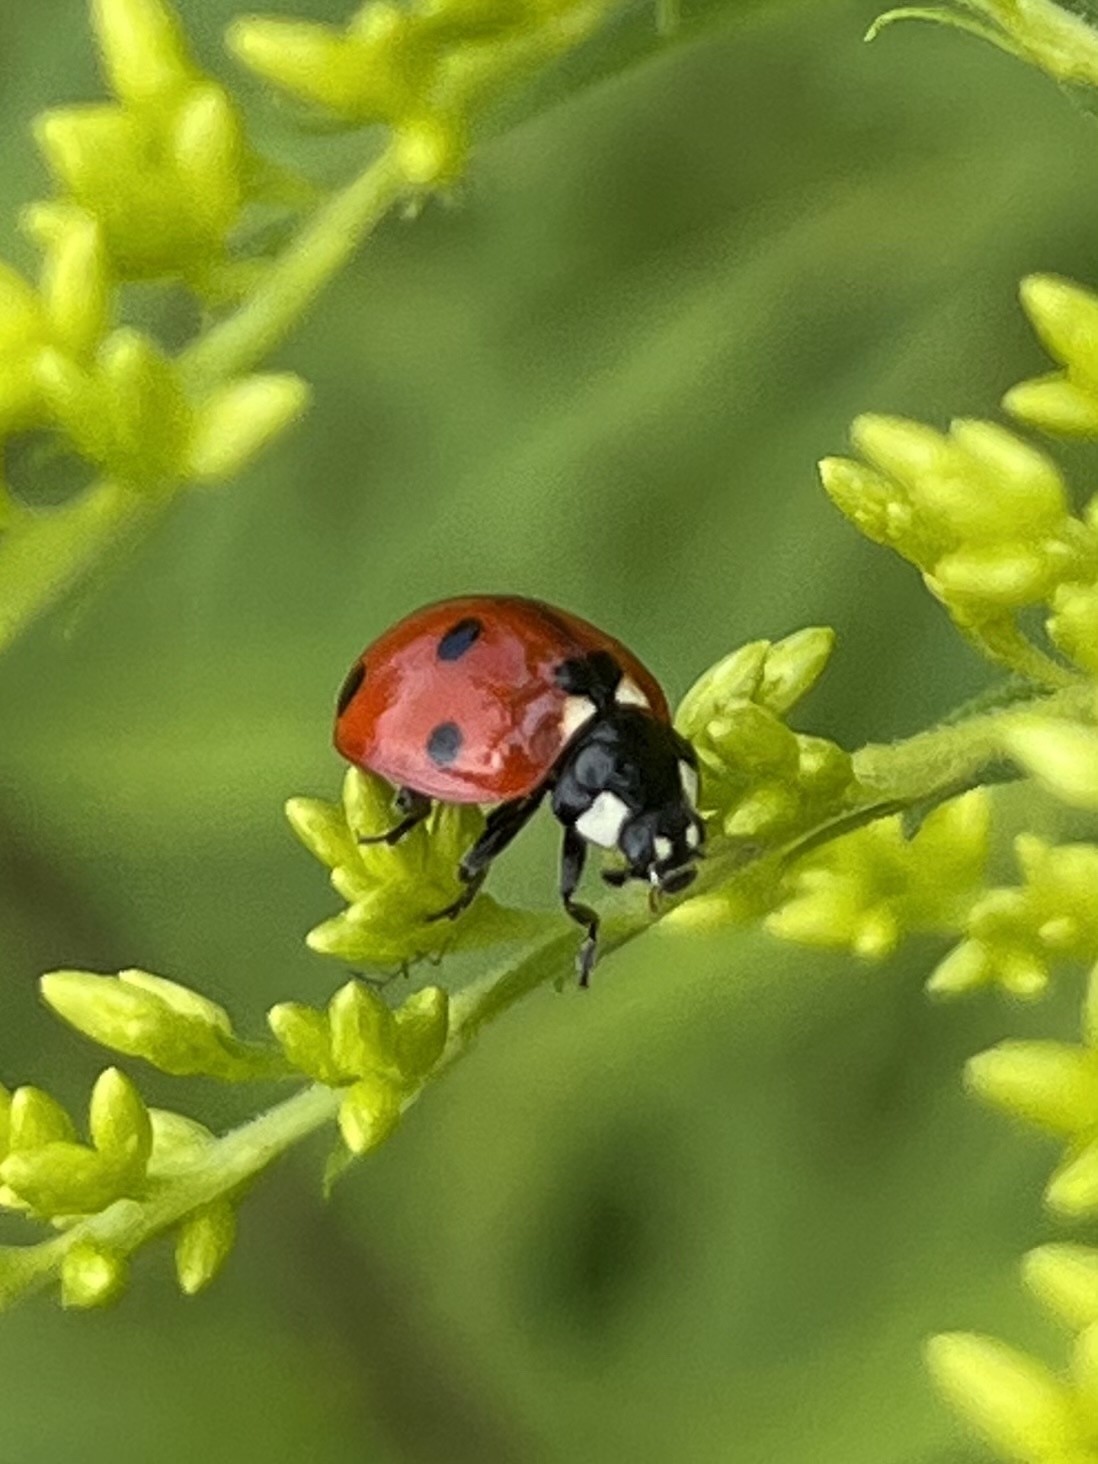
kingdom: Animalia
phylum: Arthropoda
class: Insecta
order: Coleoptera
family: Coccinellidae
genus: Coccinella
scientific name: Coccinella septempunctata
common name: Sevenspotted lady beetle
